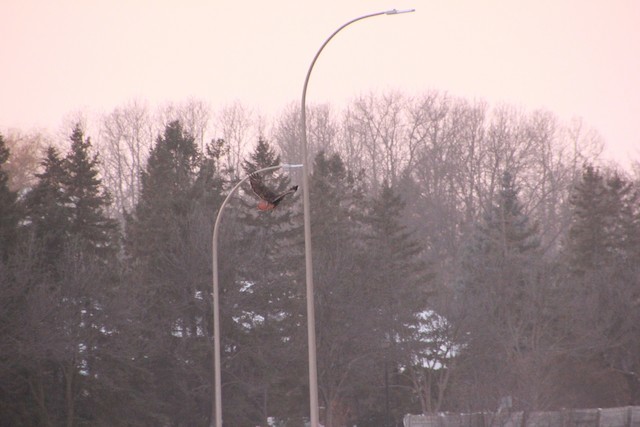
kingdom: Animalia
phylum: Chordata
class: Aves
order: Accipitriformes
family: Accipitridae
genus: Buteo
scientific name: Buteo jamaicensis
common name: Red-tailed hawk
